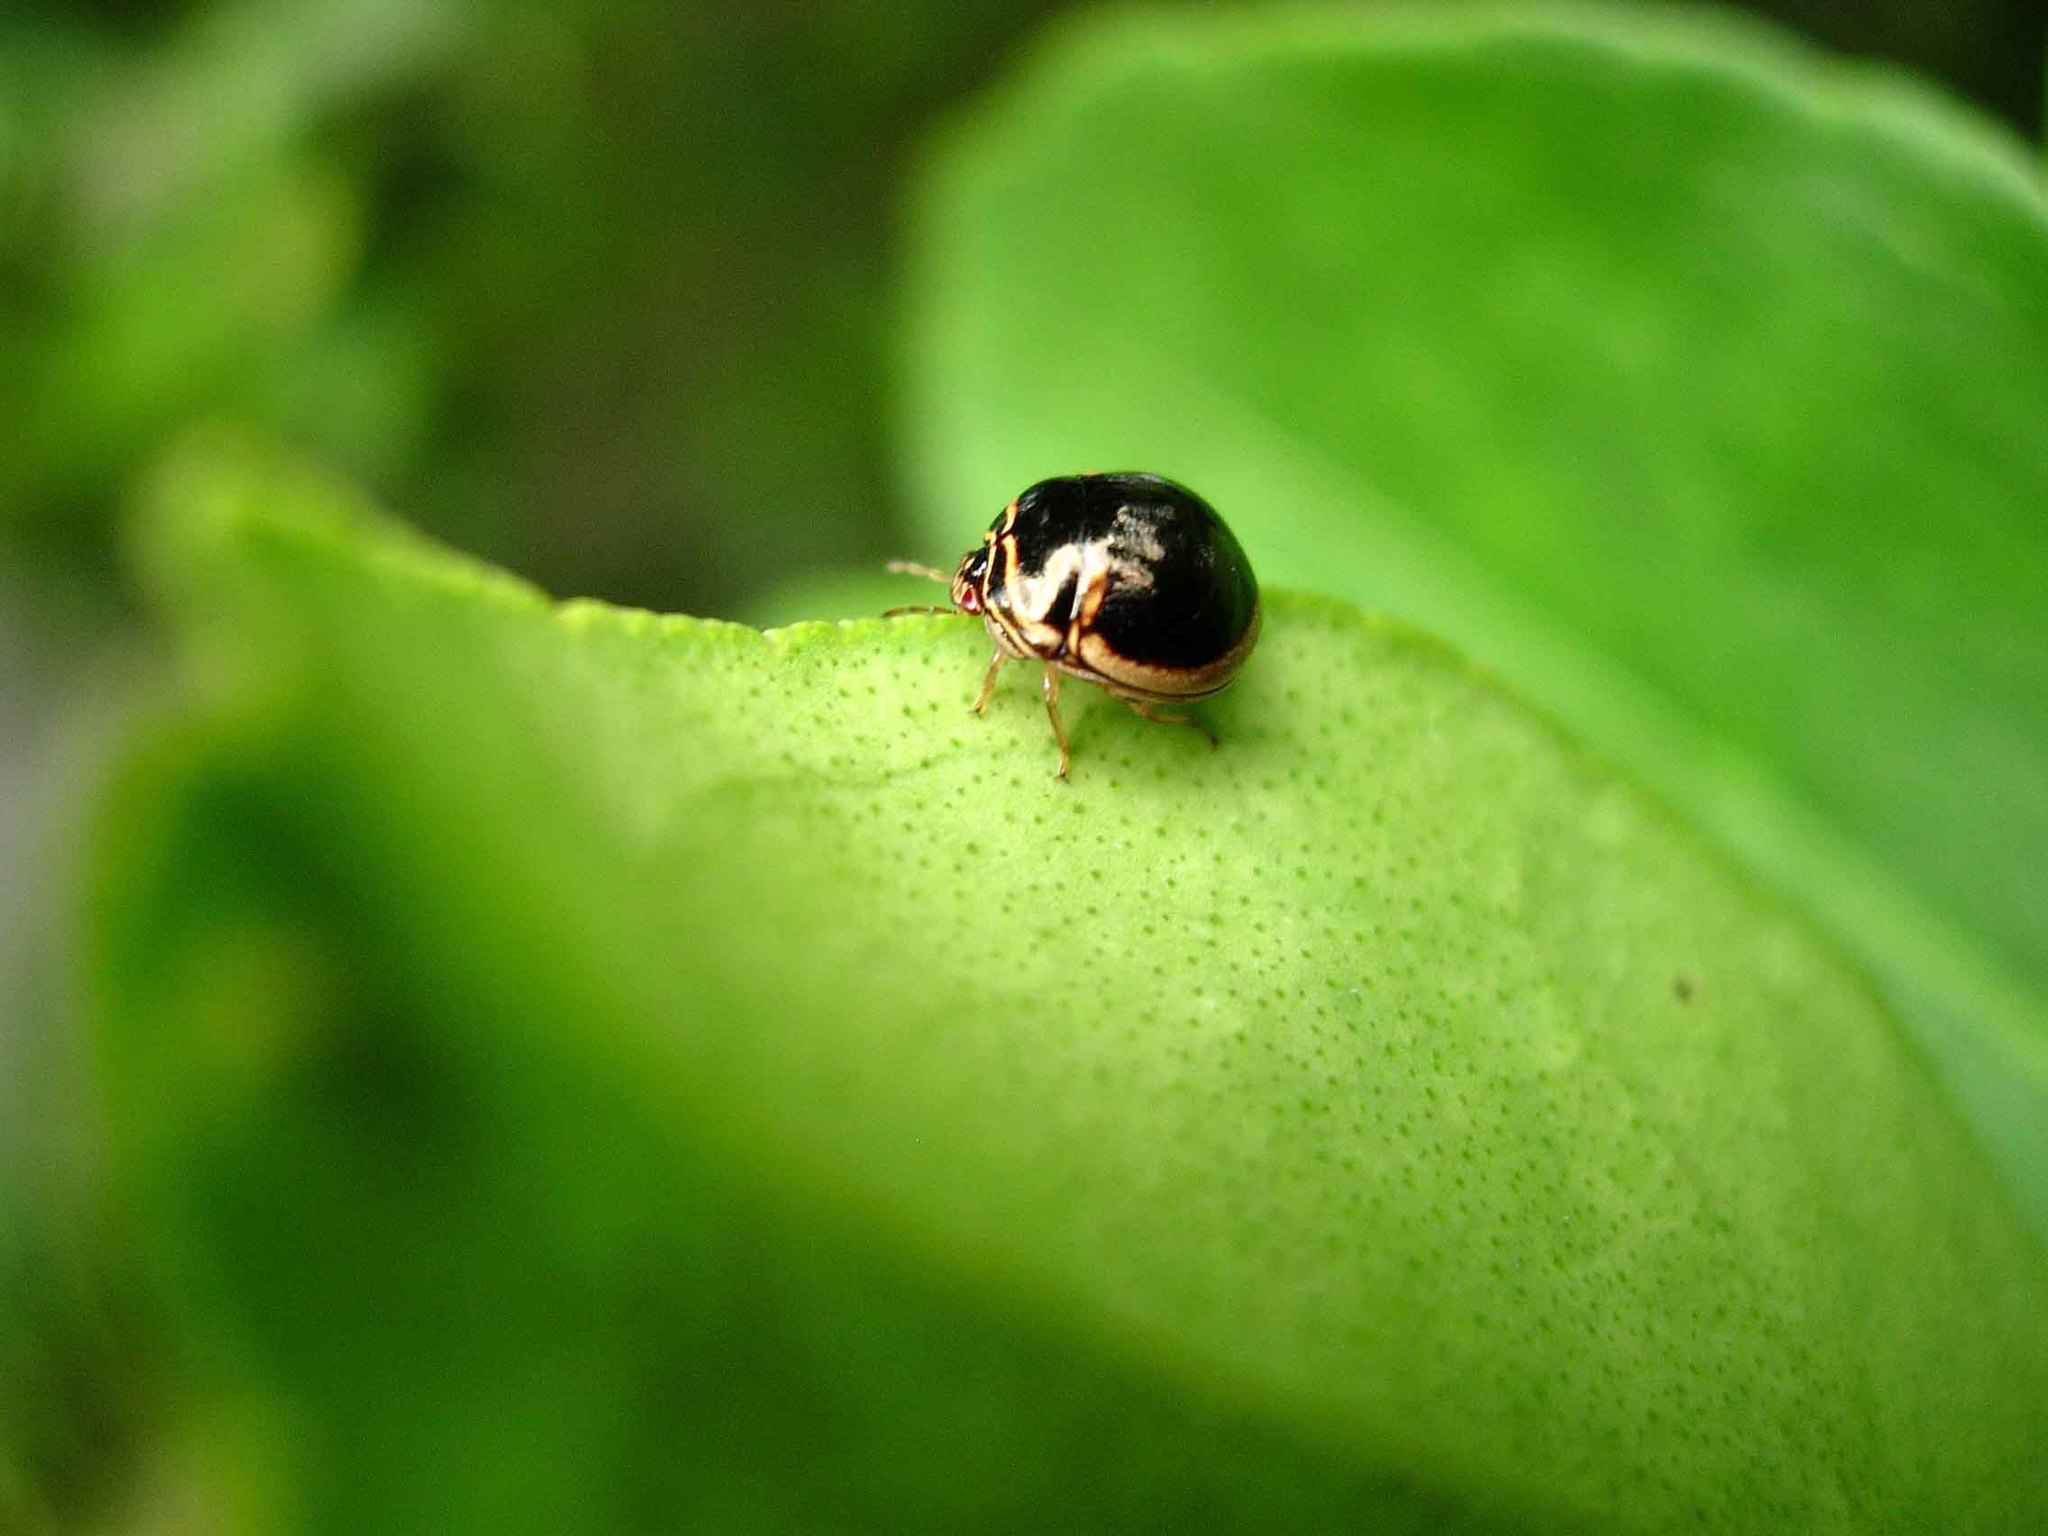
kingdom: Animalia
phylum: Arthropoda
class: Insecta
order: Hemiptera
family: Plataspidae
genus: Coptosoma
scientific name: Coptosoma
